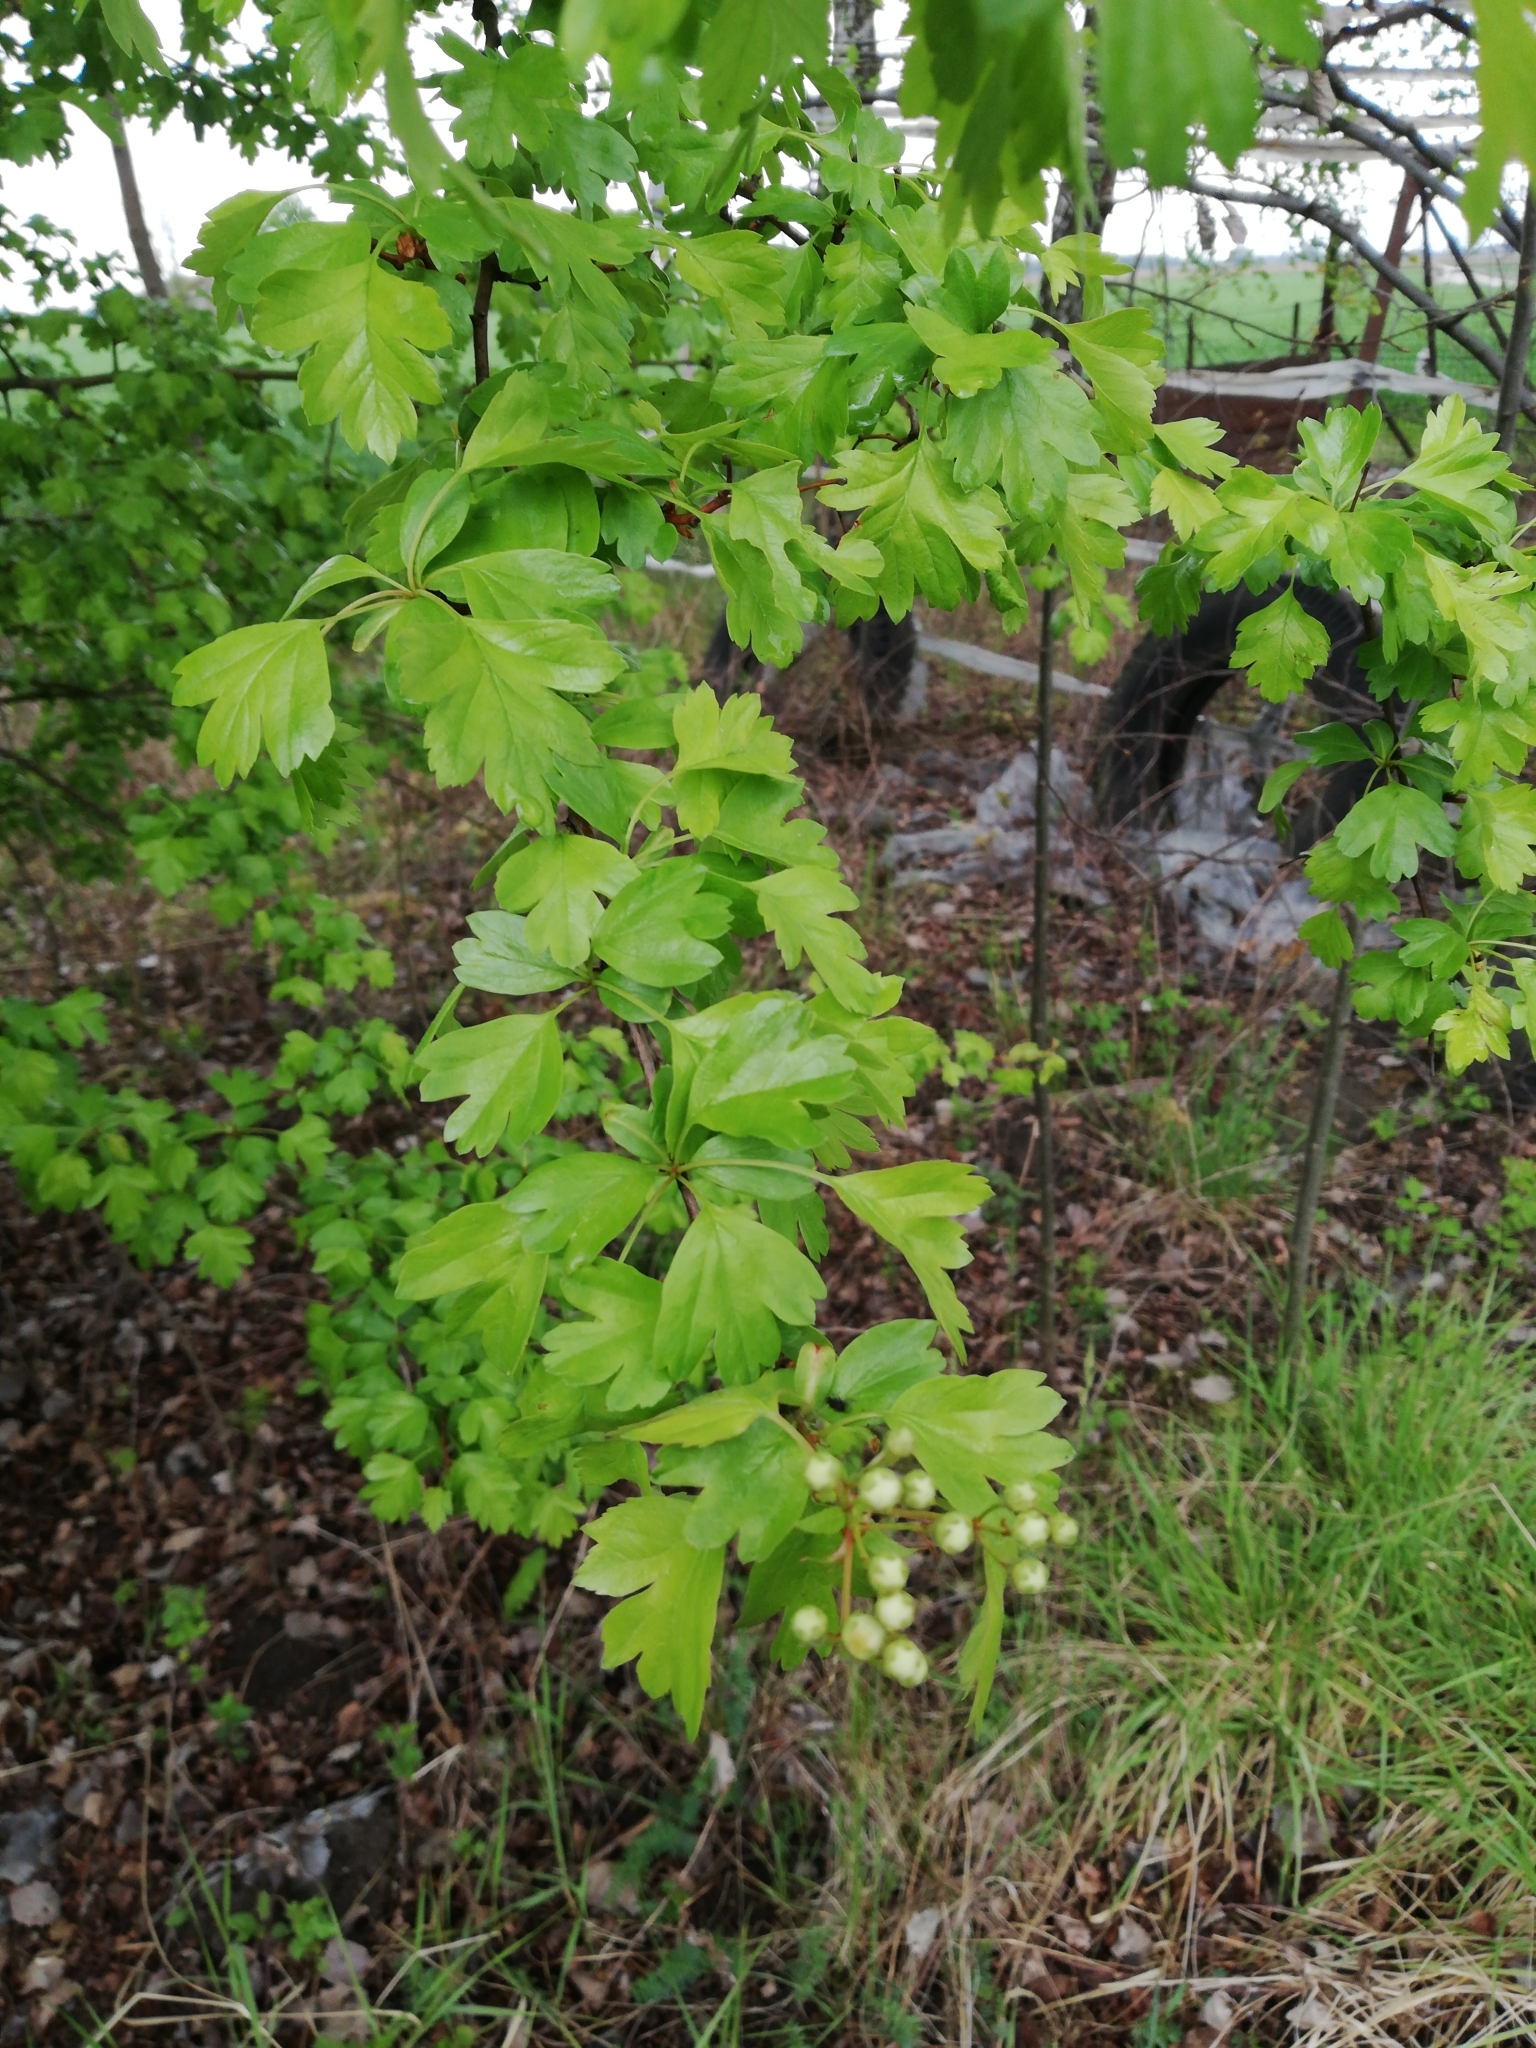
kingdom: Plantae
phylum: Tracheophyta
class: Magnoliopsida
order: Rosales
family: Rosaceae
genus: Crataegus
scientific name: Crataegus monogyna
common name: Hawthorn
